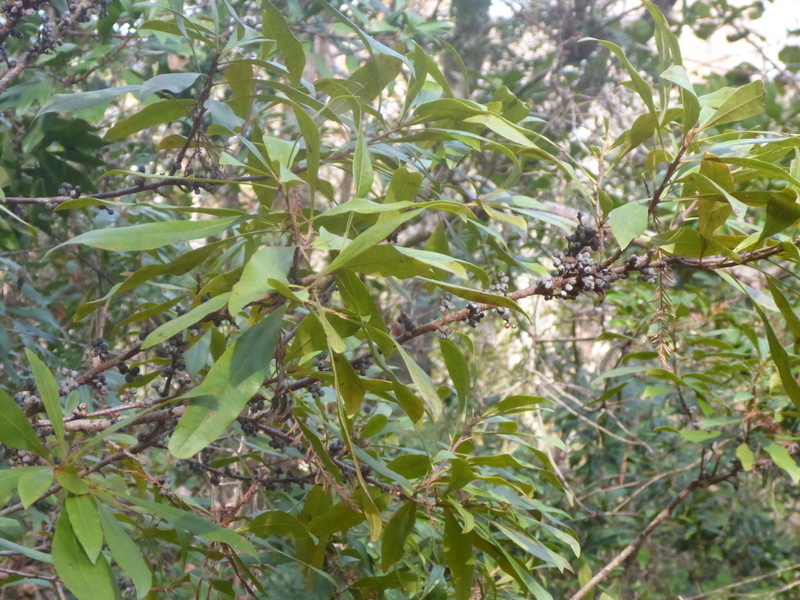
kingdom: Plantae
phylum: Tracheophyta
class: Magnoliopsida
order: Fagales
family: Myricaceae
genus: Morella
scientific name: Morella cerifera
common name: Wax myrtle
